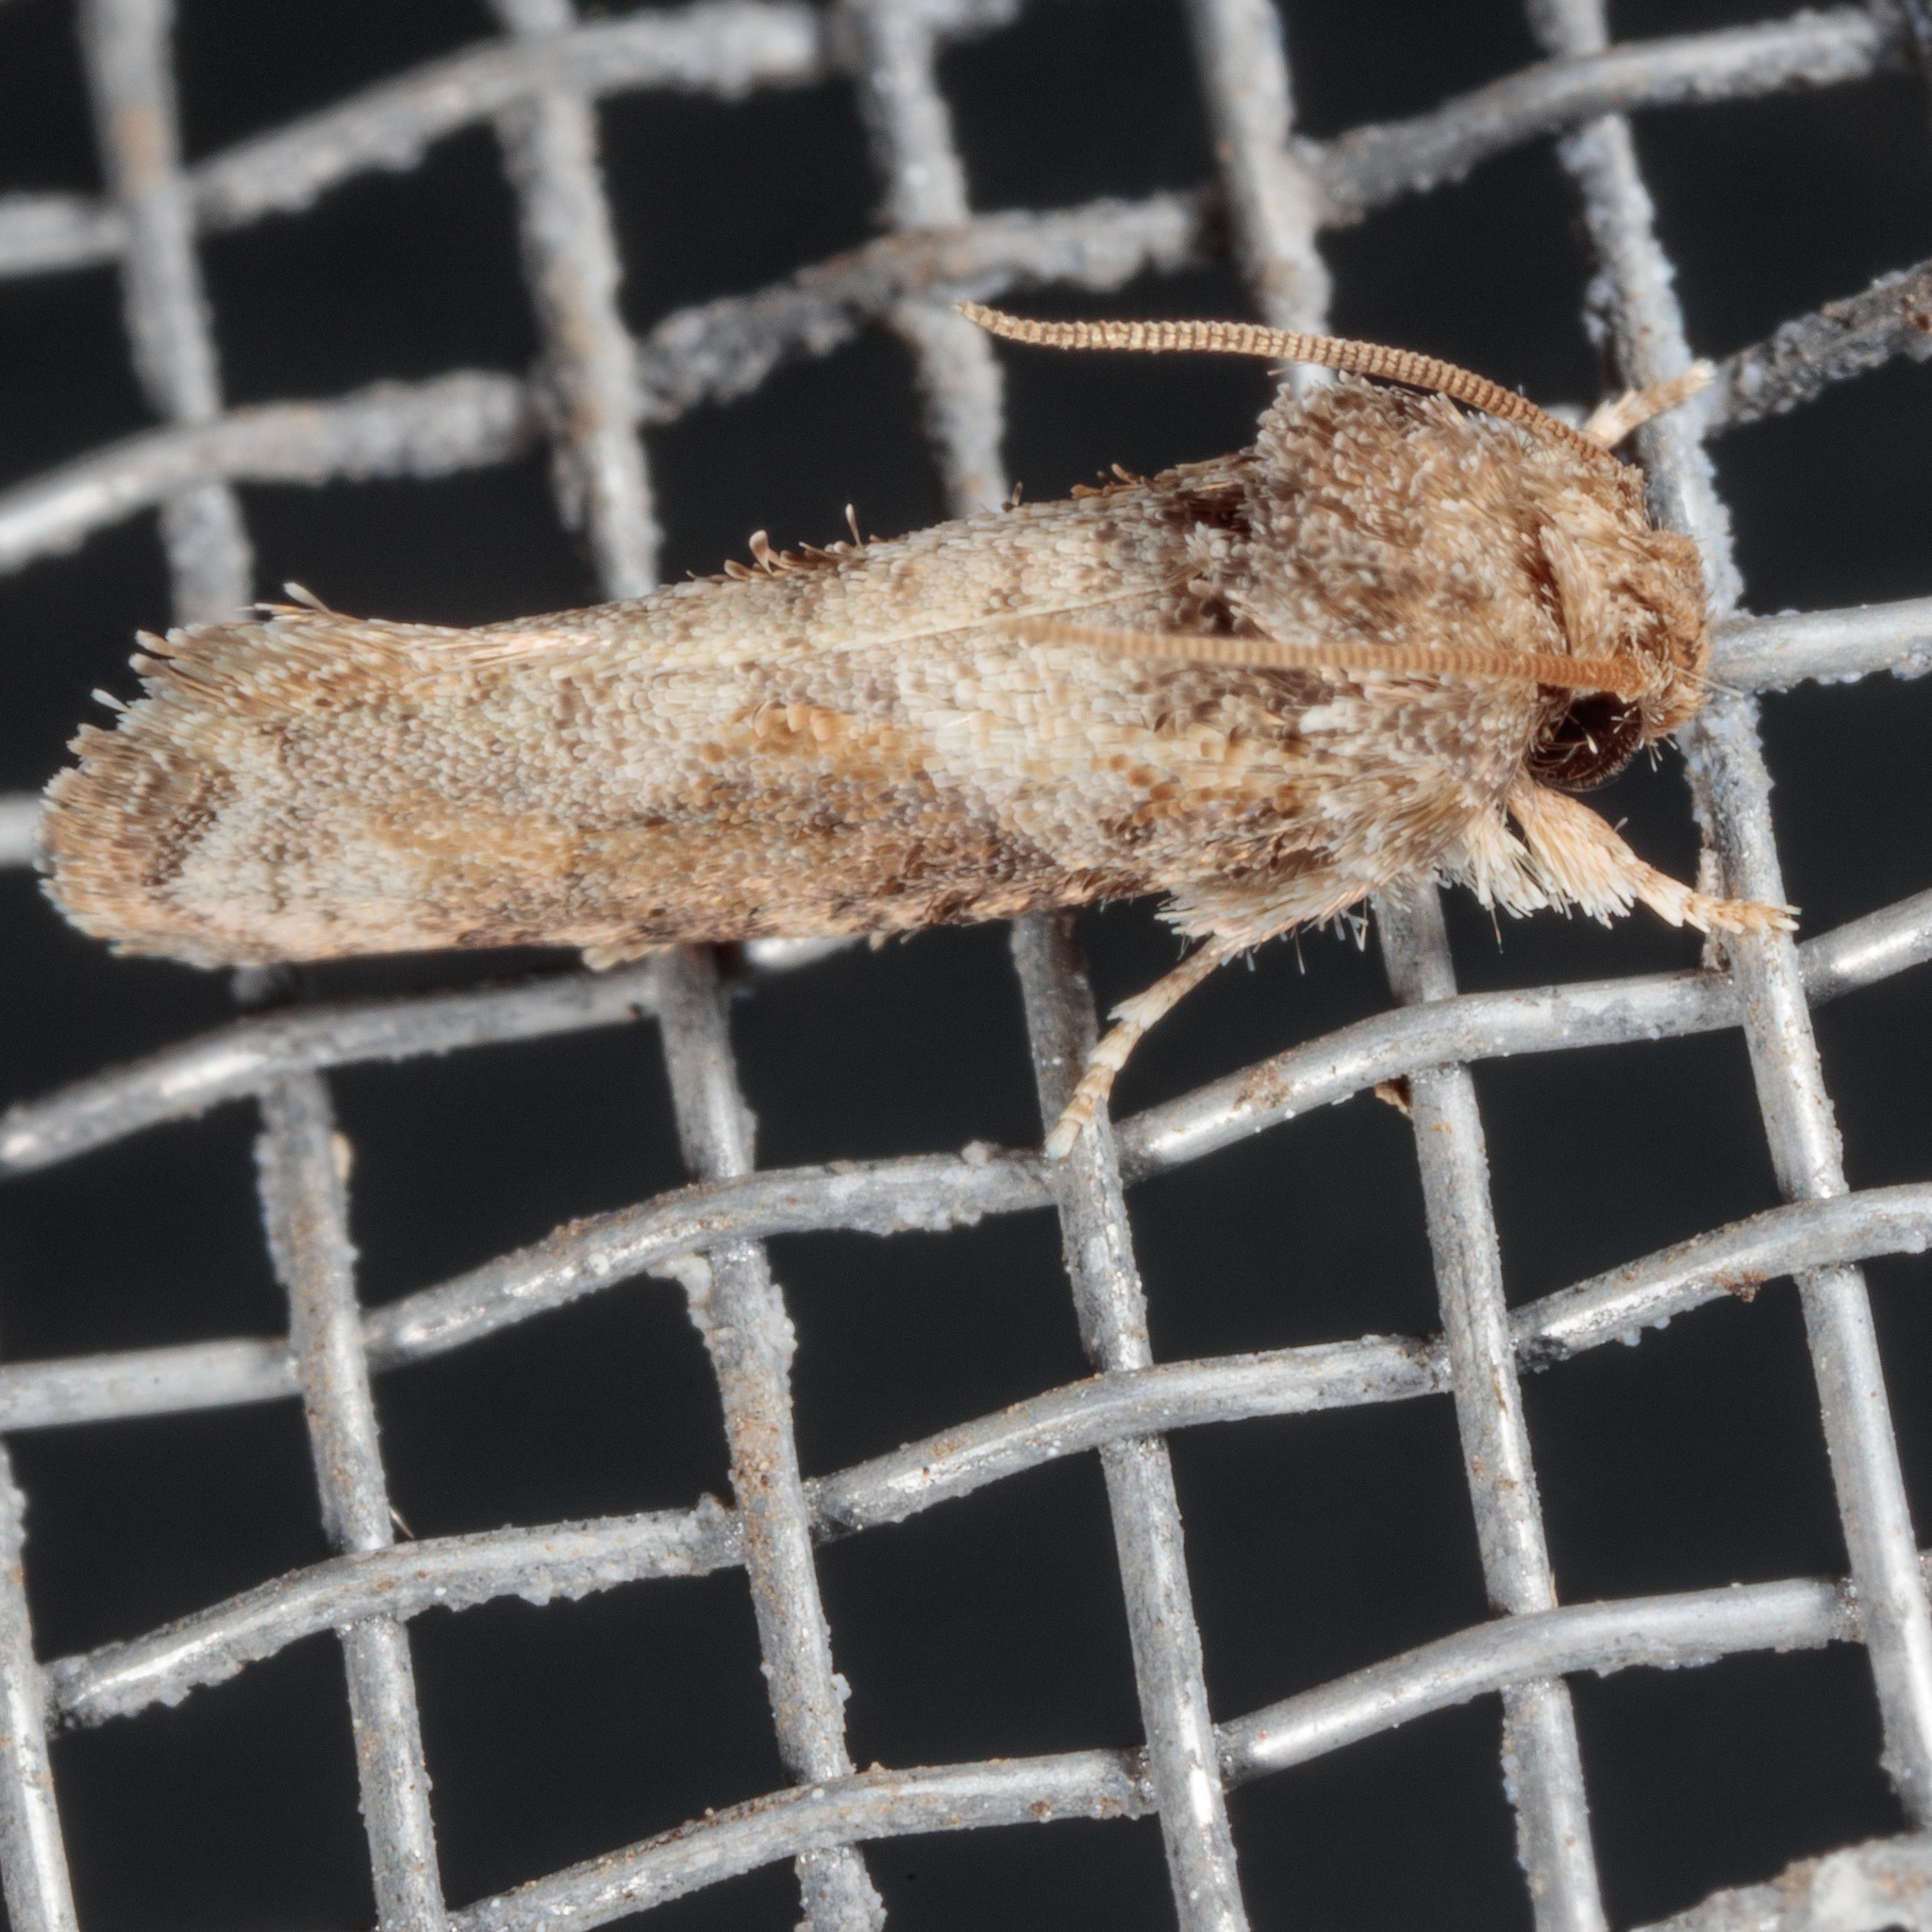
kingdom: Animalia
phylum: Arthropoda
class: Insecta
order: Lepidoptera
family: Tineidae
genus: Acrolophus
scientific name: Acrolophus piger
